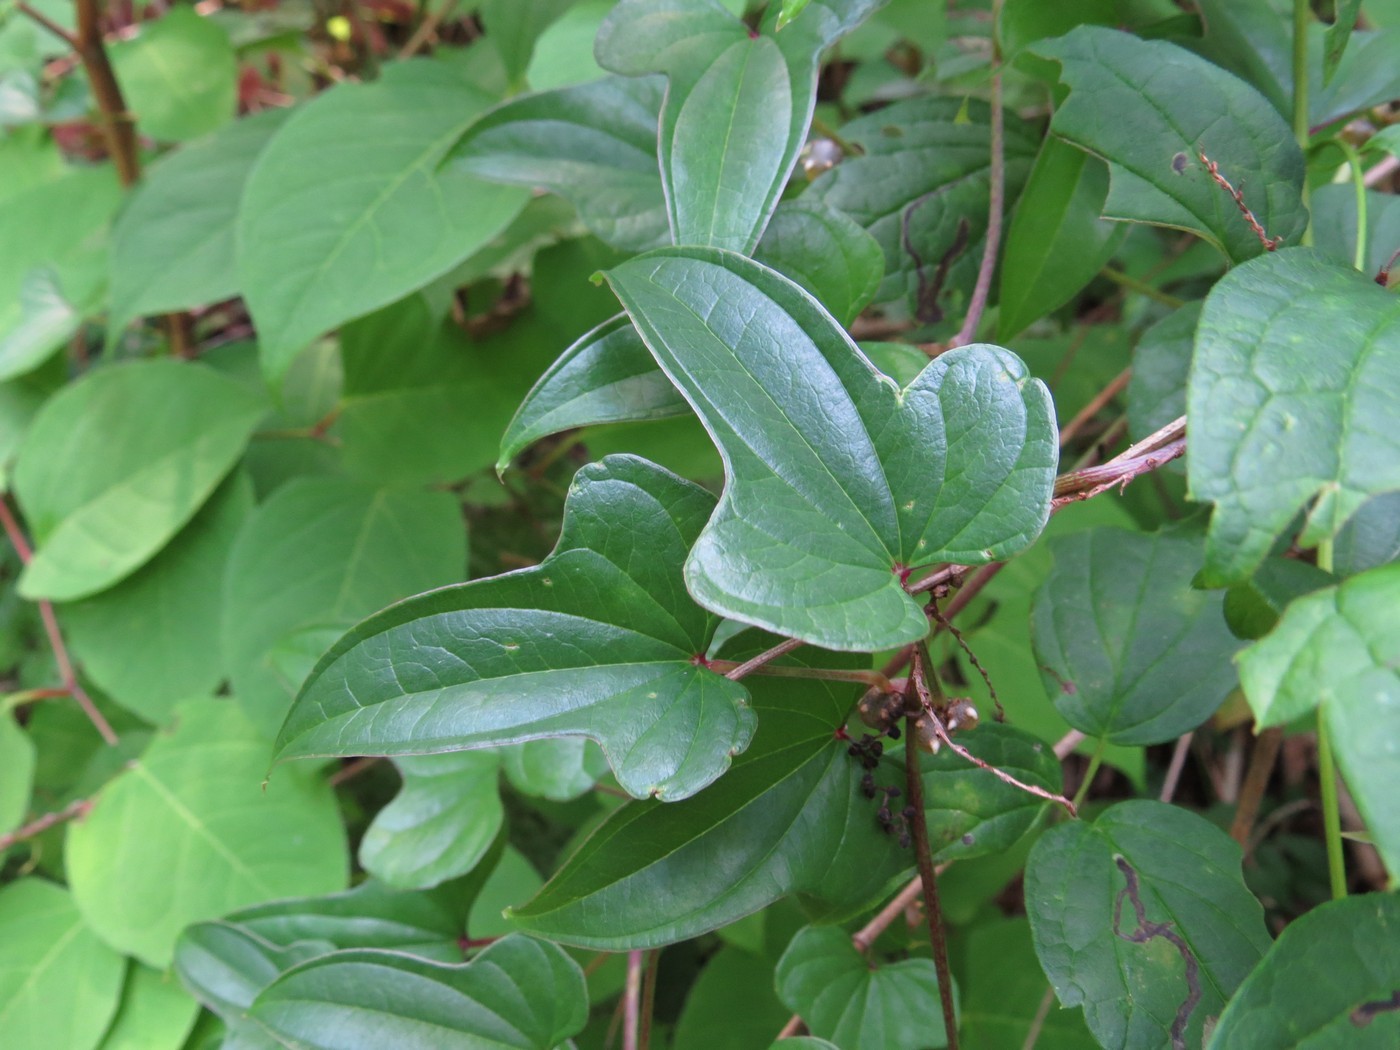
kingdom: Plantae
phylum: Tracheophyta
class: Liliopsida
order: Dioscoreales
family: Dioscoreaceae
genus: Dioscorea
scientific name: Dioscorea polystachya
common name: Chinese yam
